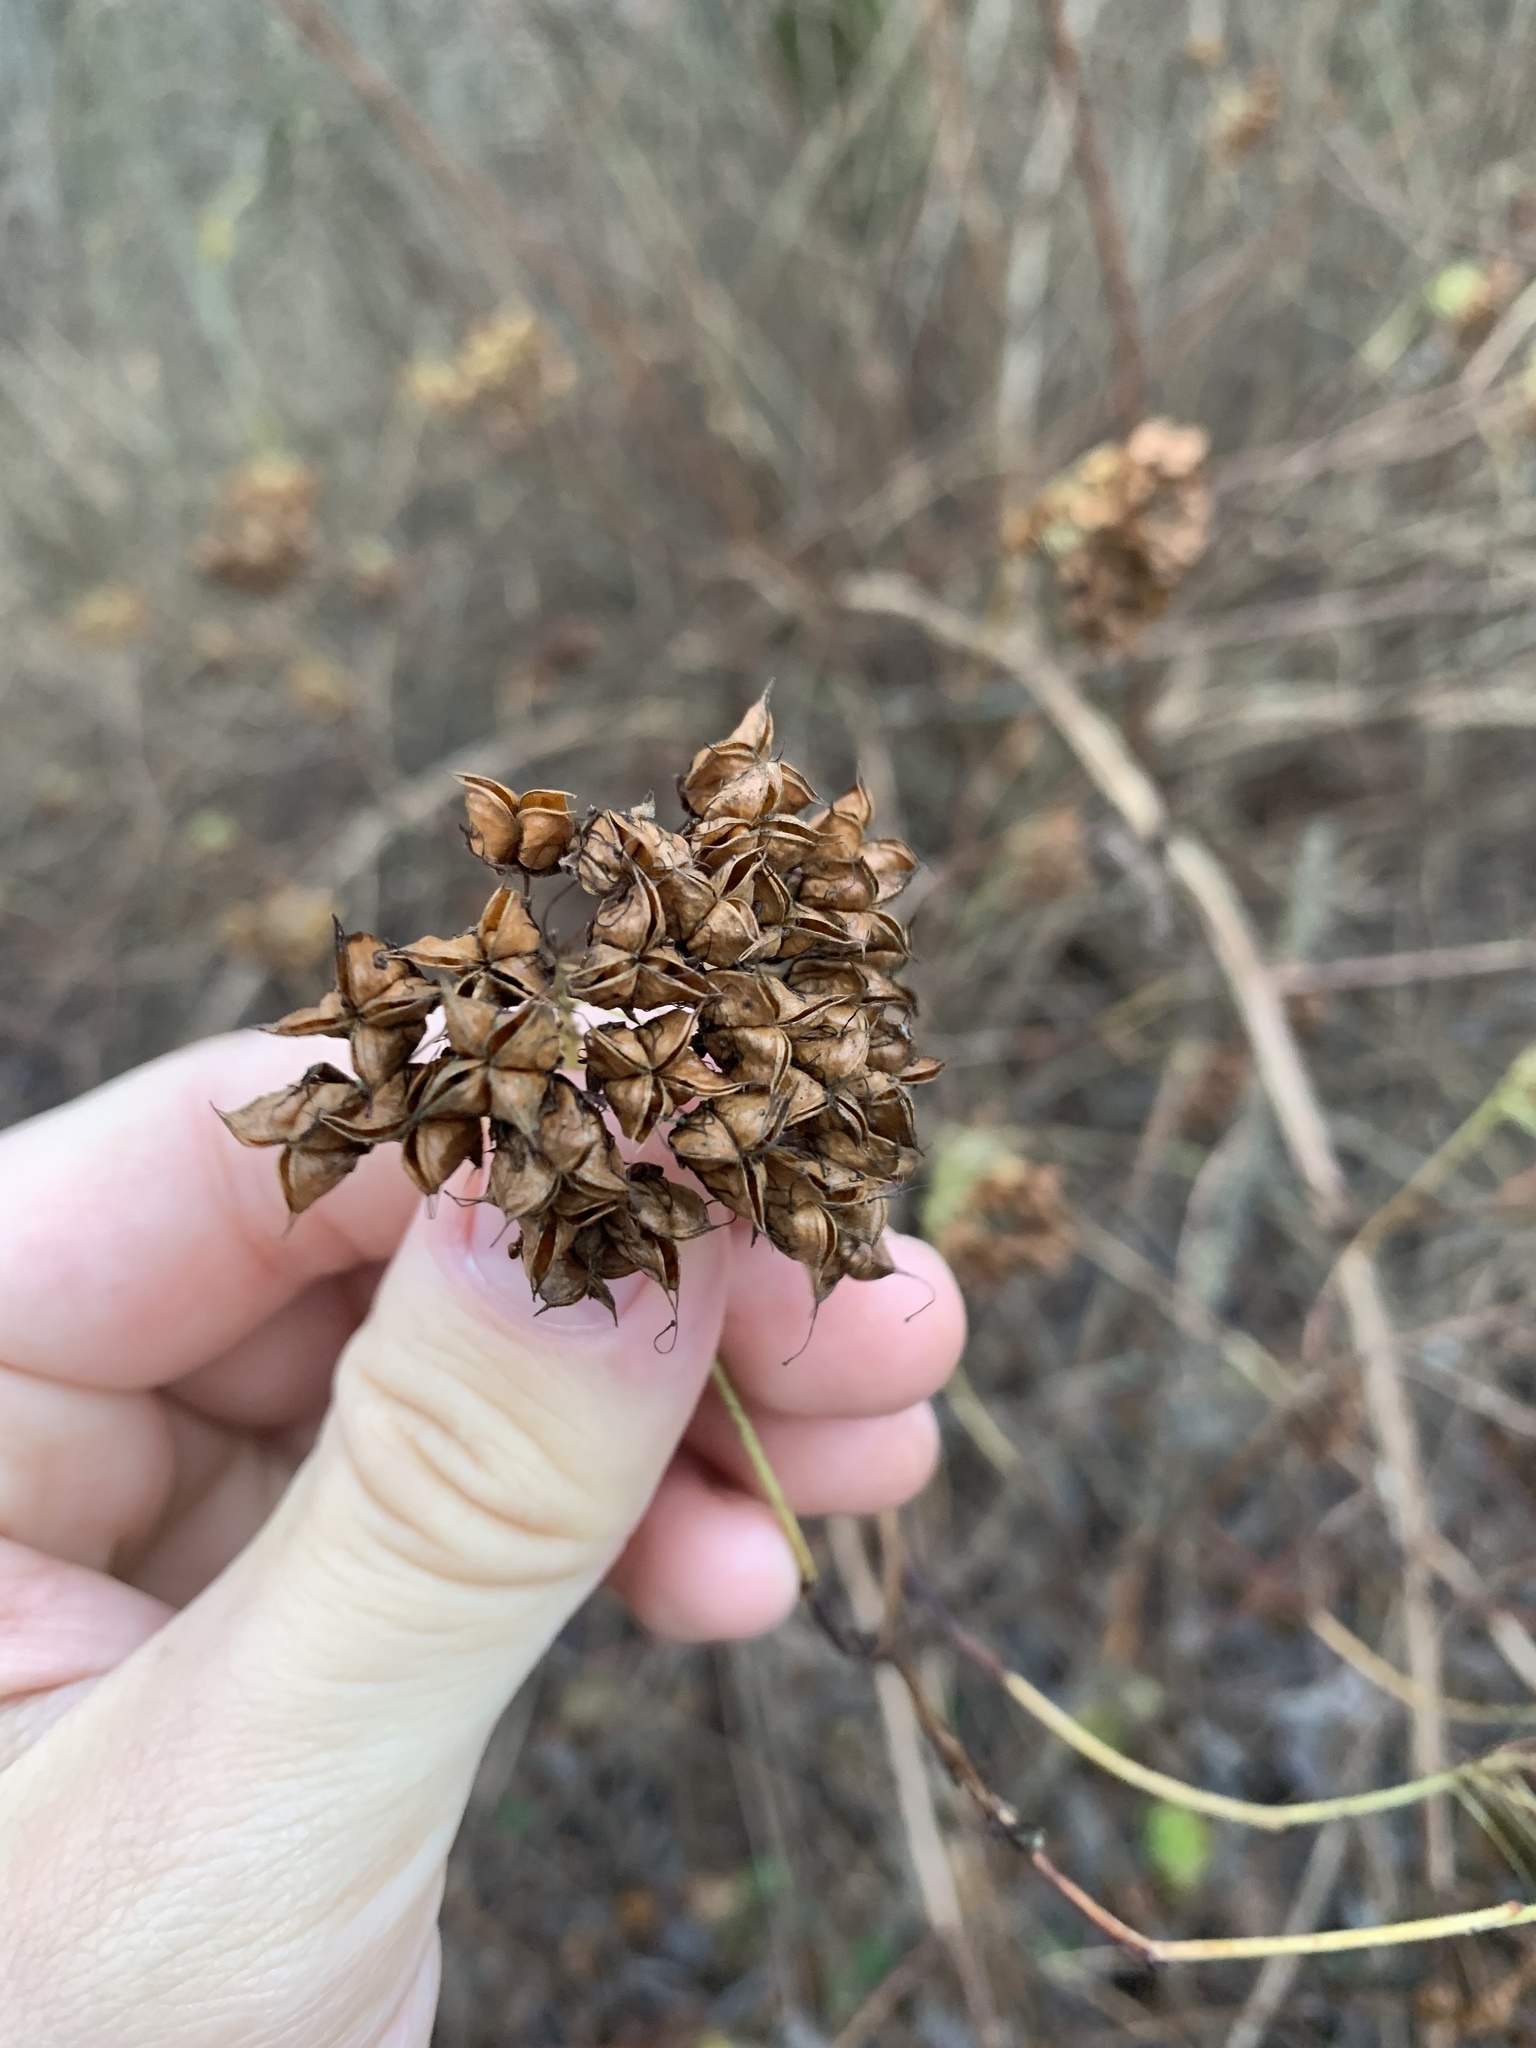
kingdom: Plantae
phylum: Tracheophyta
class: Magnoliopsida
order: Rosales
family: Rosaceae
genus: Physocarpus
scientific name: Physocarpus opulifolius
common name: Ninebark
